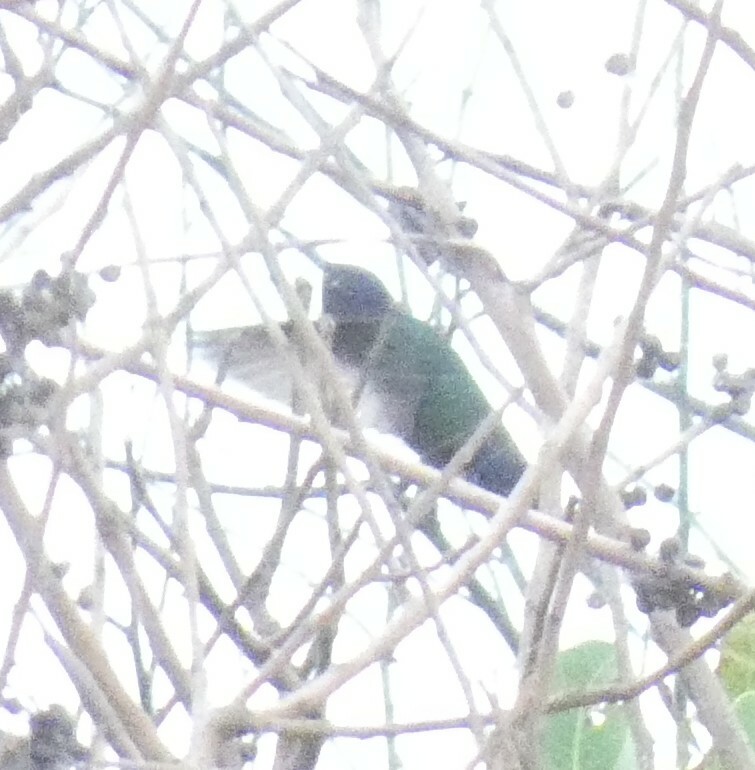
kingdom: Animalia
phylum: Chordata
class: Aves
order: Apodiformes
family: Trochilidae
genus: Eupetomena
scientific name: Eupetomena macroura
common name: Swallow-tailed hummingbird
